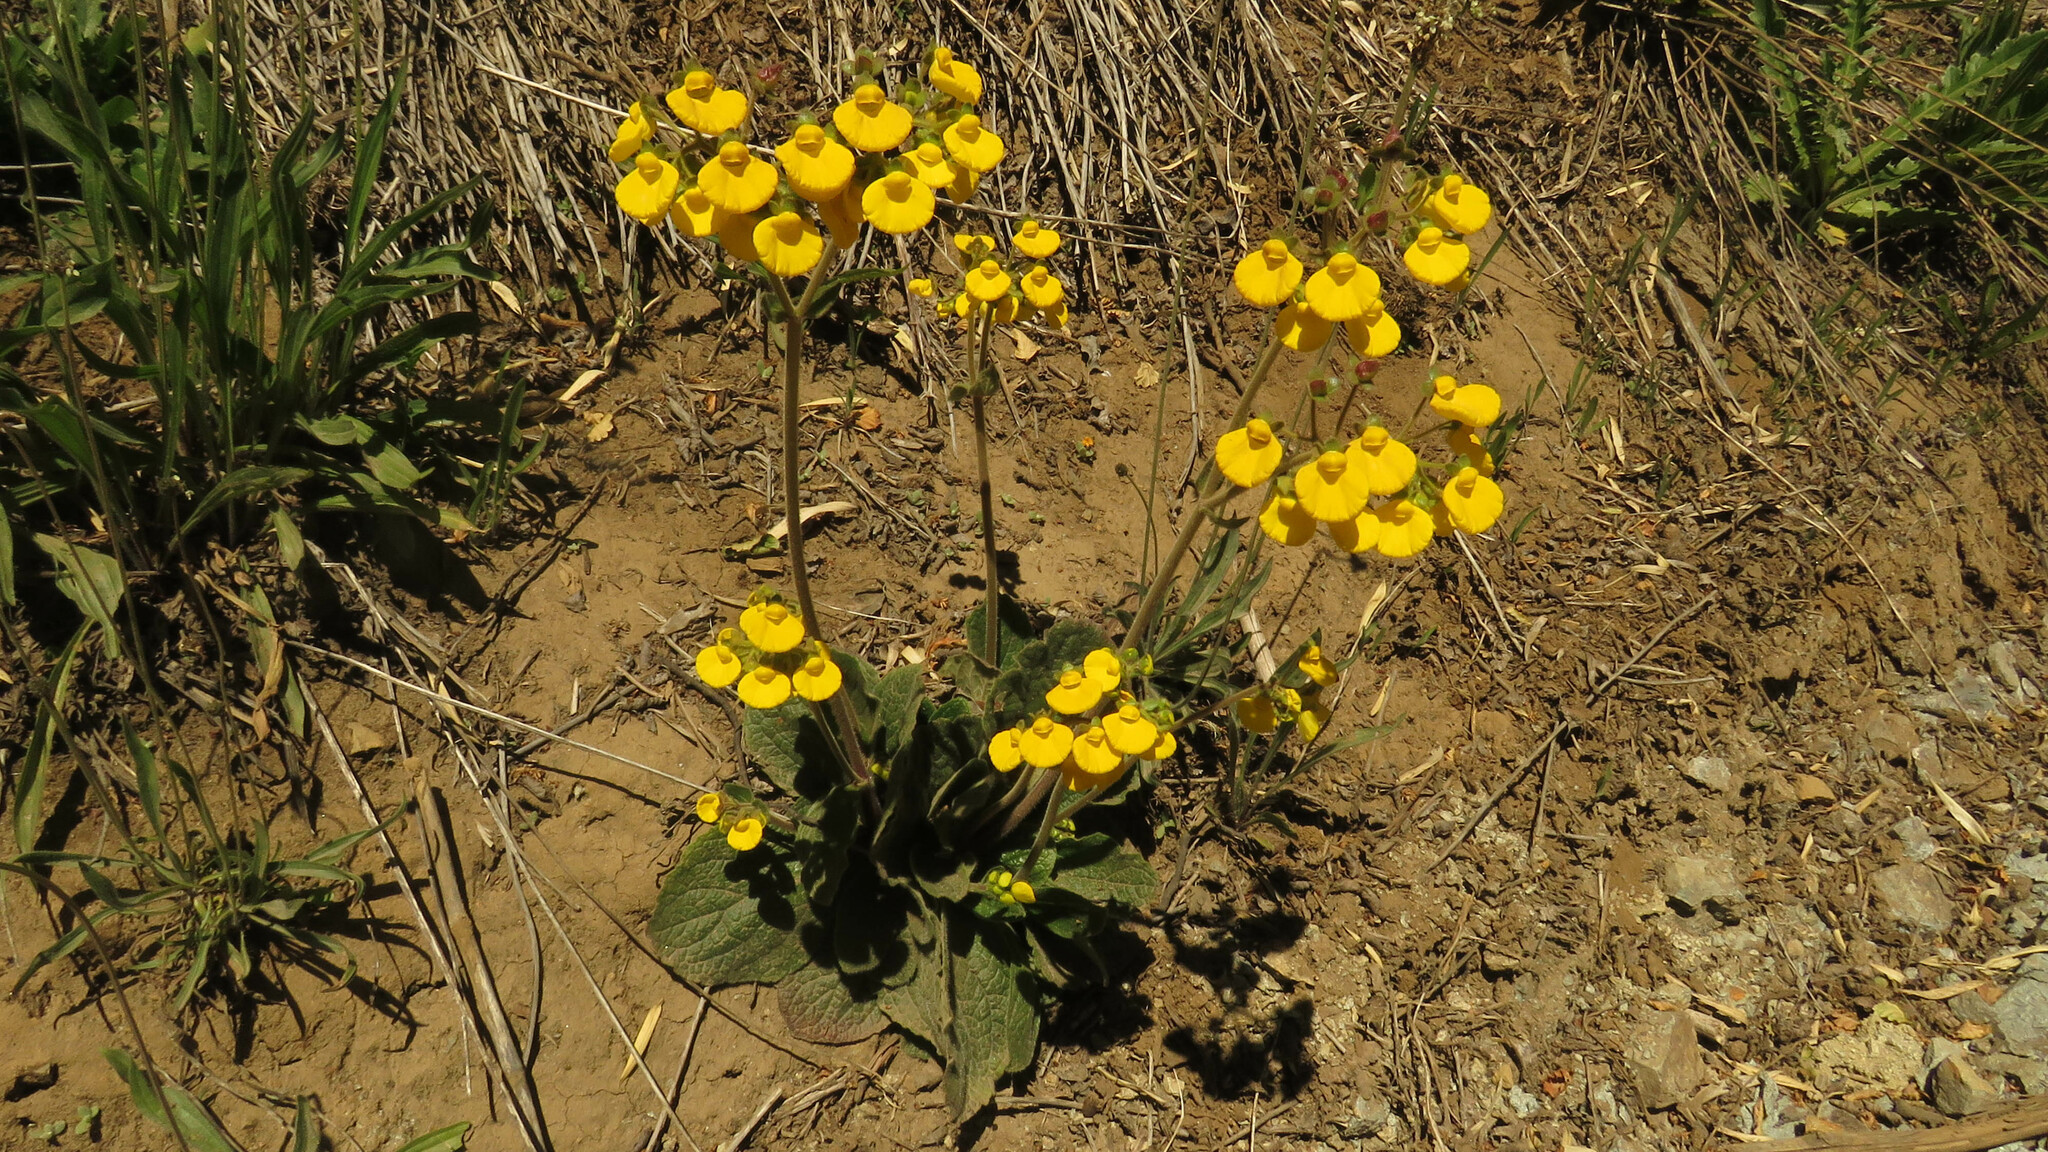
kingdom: Plantae
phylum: Tracheophyta
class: Magnoliopsida
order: Lamiales
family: Calceolariaceae
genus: Calceolaria
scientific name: Calceolaria valdiviana
